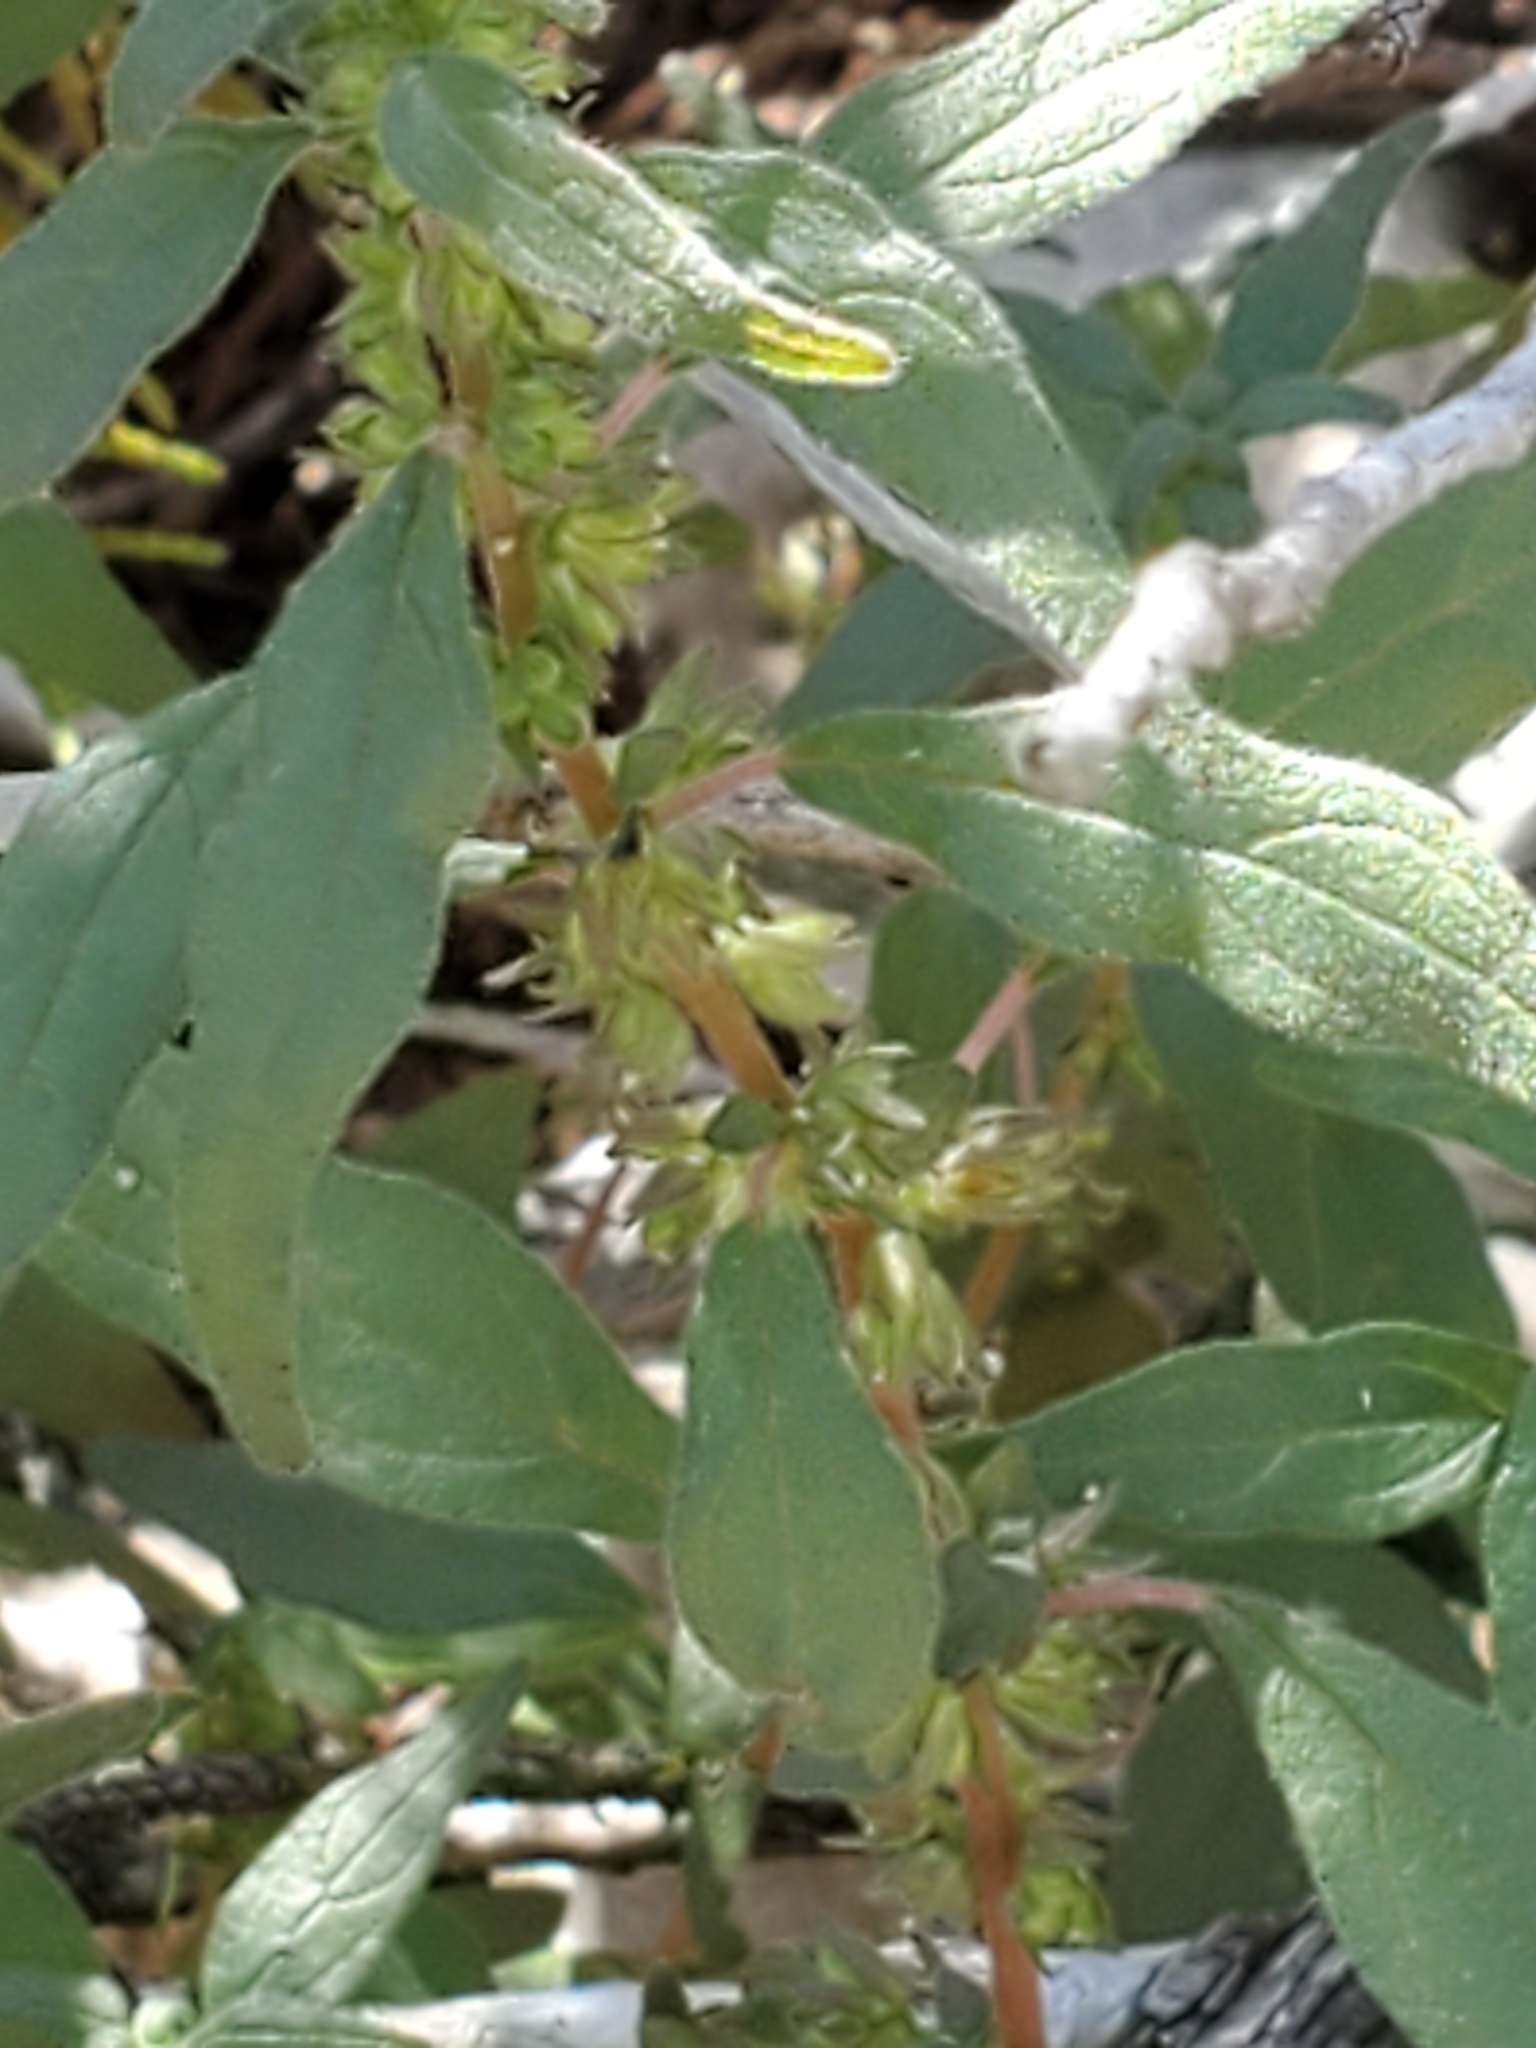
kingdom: Plantae
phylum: Tracheophyta
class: Magnoliopsida
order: Rosales
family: Urticaceae
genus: Parietaria
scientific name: Parietaria pensylvanica
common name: Pennsylvania pellitory
